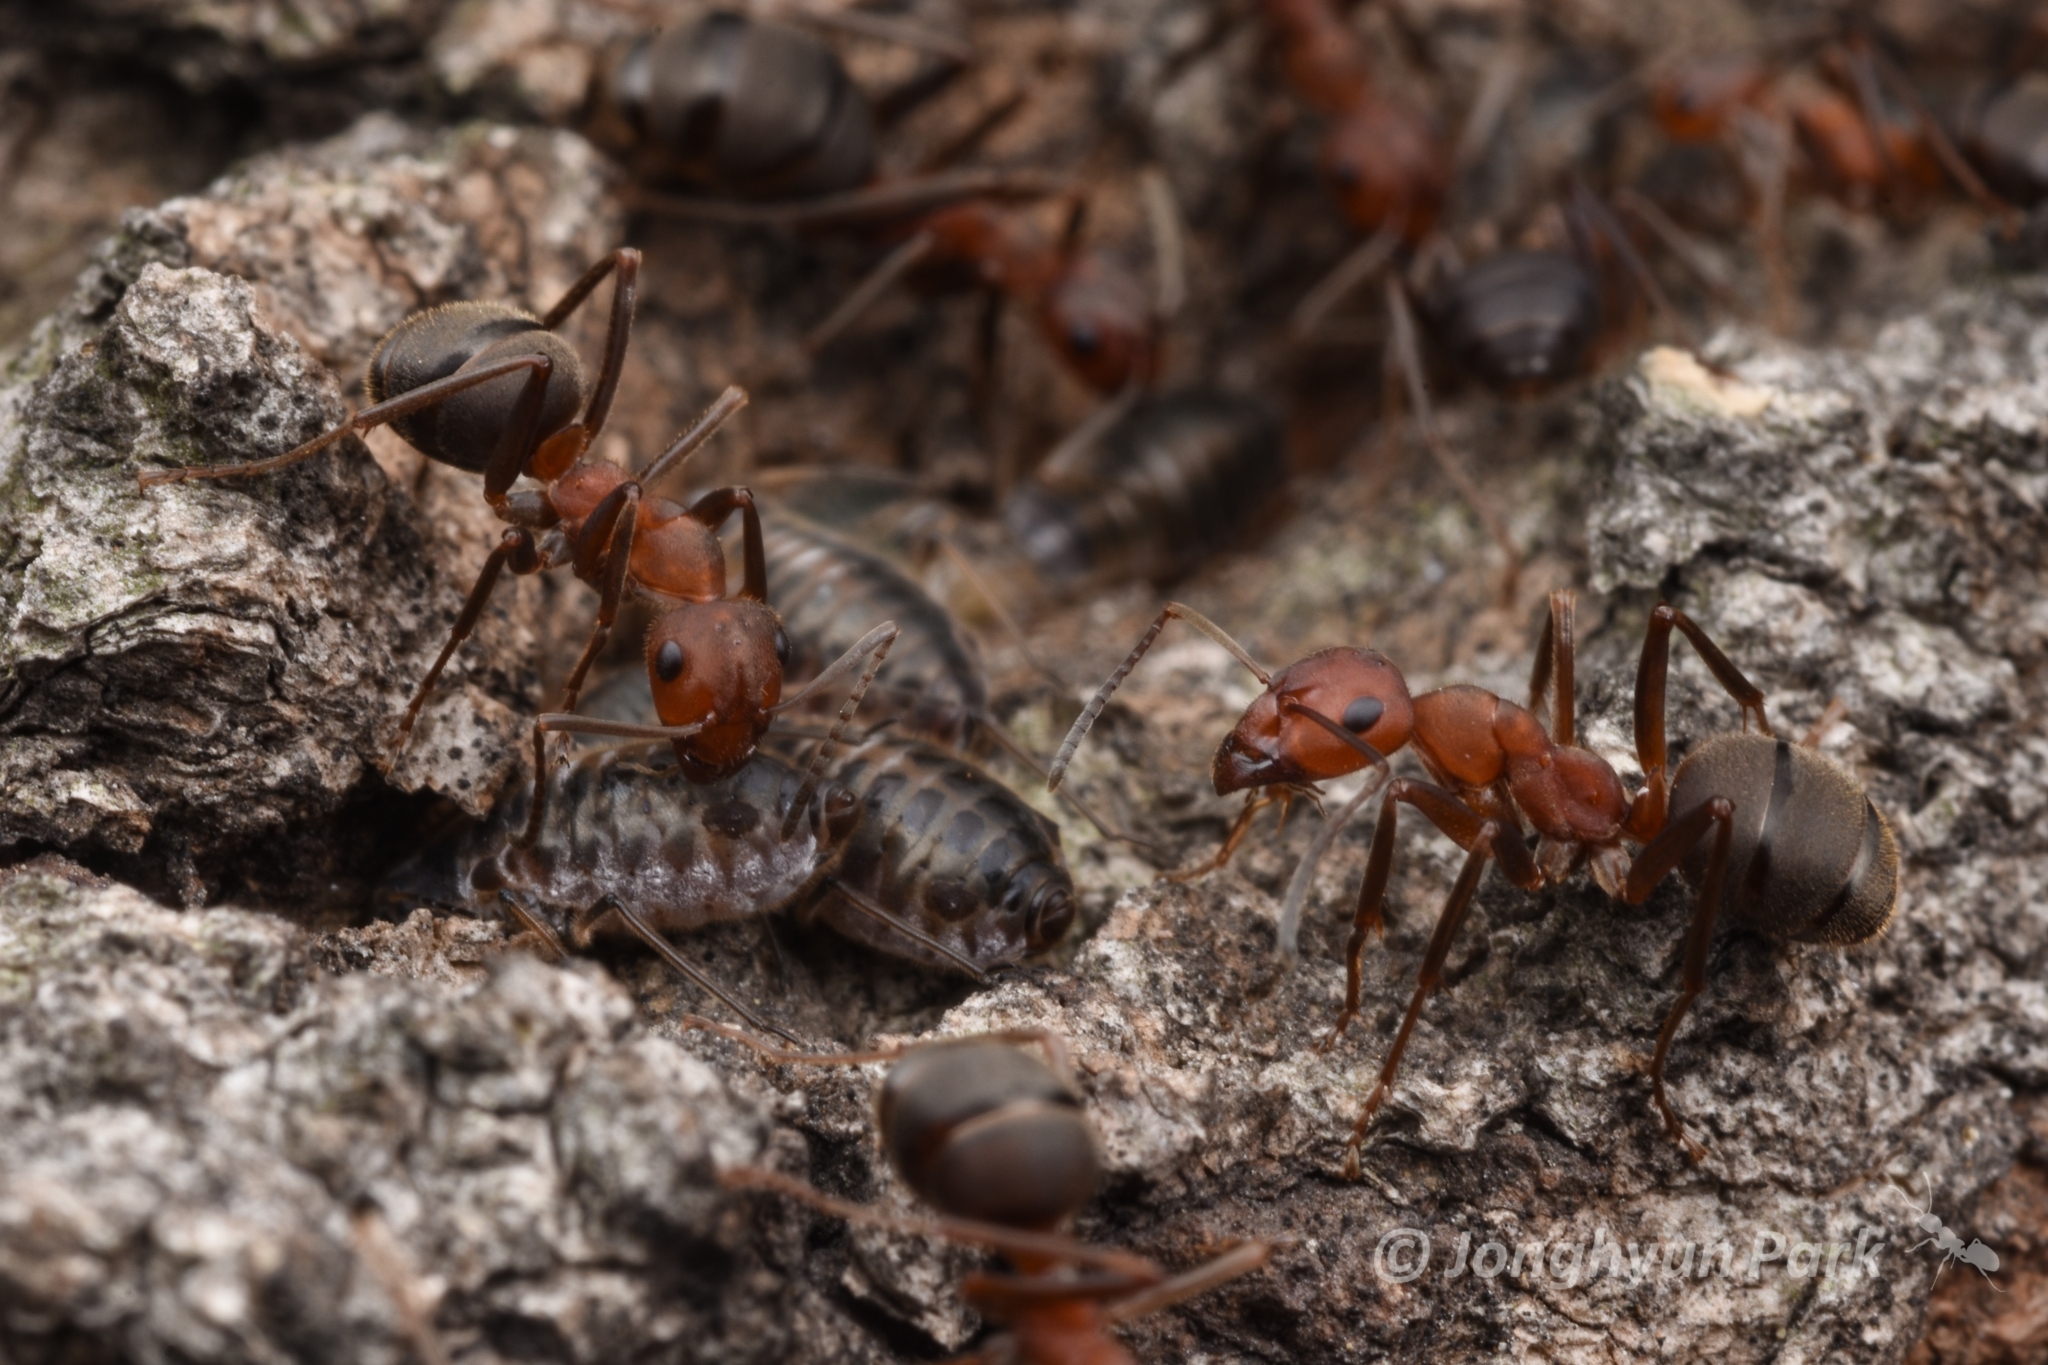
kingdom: Animalia
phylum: Arthropoda
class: Insecta
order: Hymenoptera
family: Formicidae
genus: Formica
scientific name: Formica truncorum
